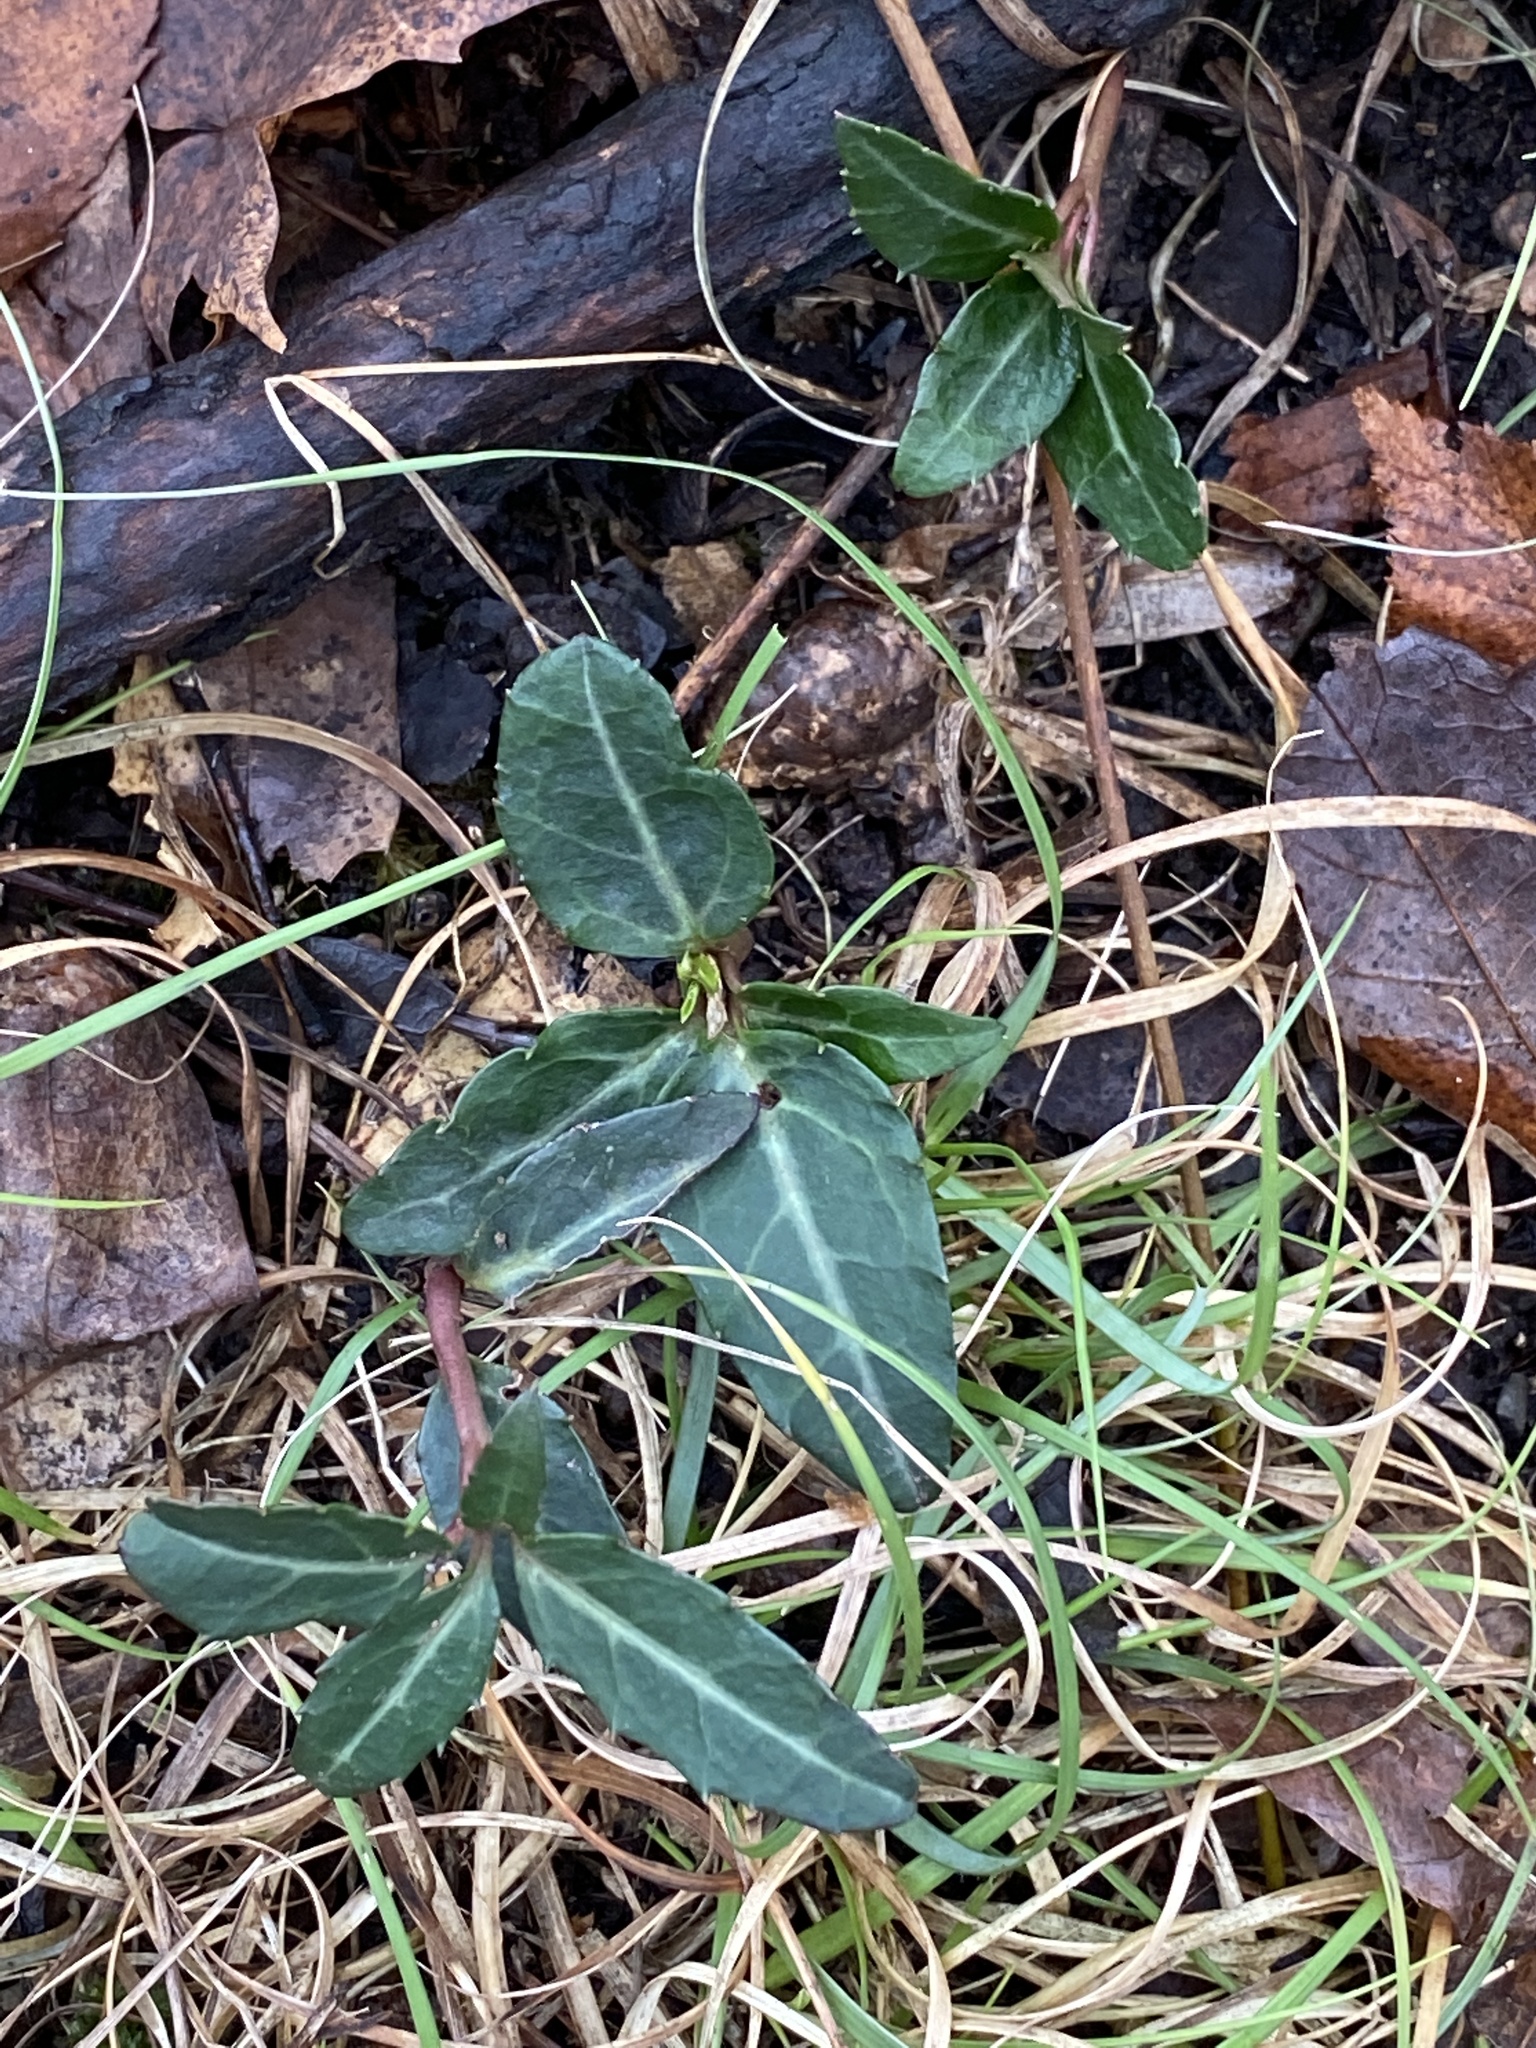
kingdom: Plantae
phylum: Tracheophyta
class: Magnoliopsida
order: Ericales
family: Ericaceae
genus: Chimaphila
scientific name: Chimaphila maculata
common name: Spotted pipsissewa
